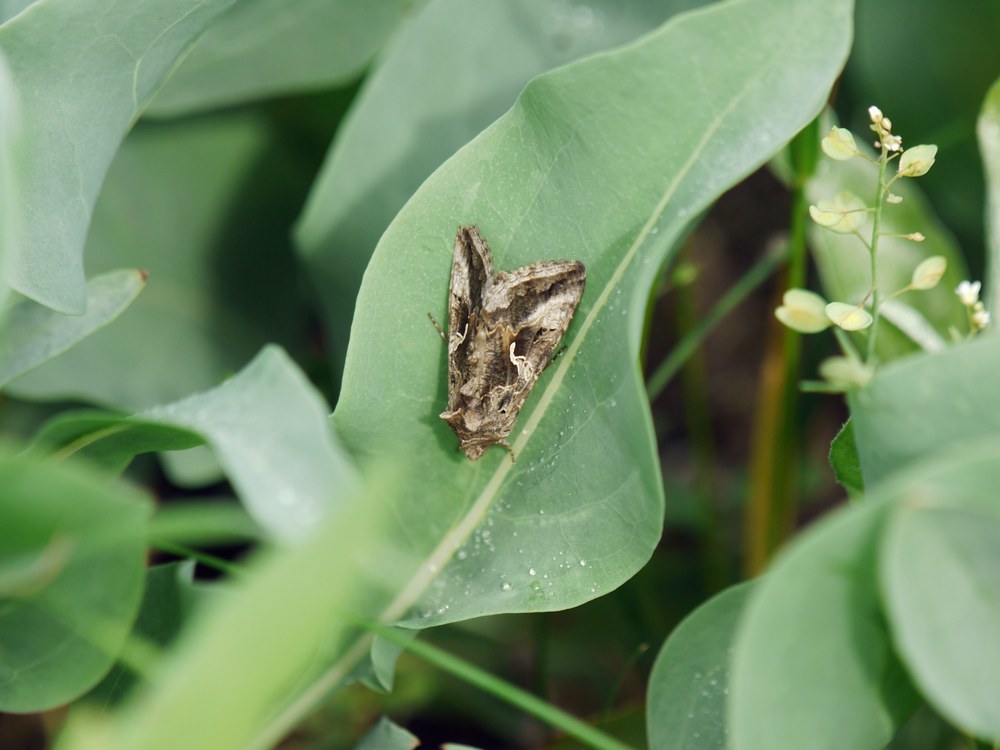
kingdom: Animalia
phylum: Arthropoda
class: Insecta
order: Lepidoptera
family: Noctuidae
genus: Autographa
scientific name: Autographa gamma
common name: Silver y
